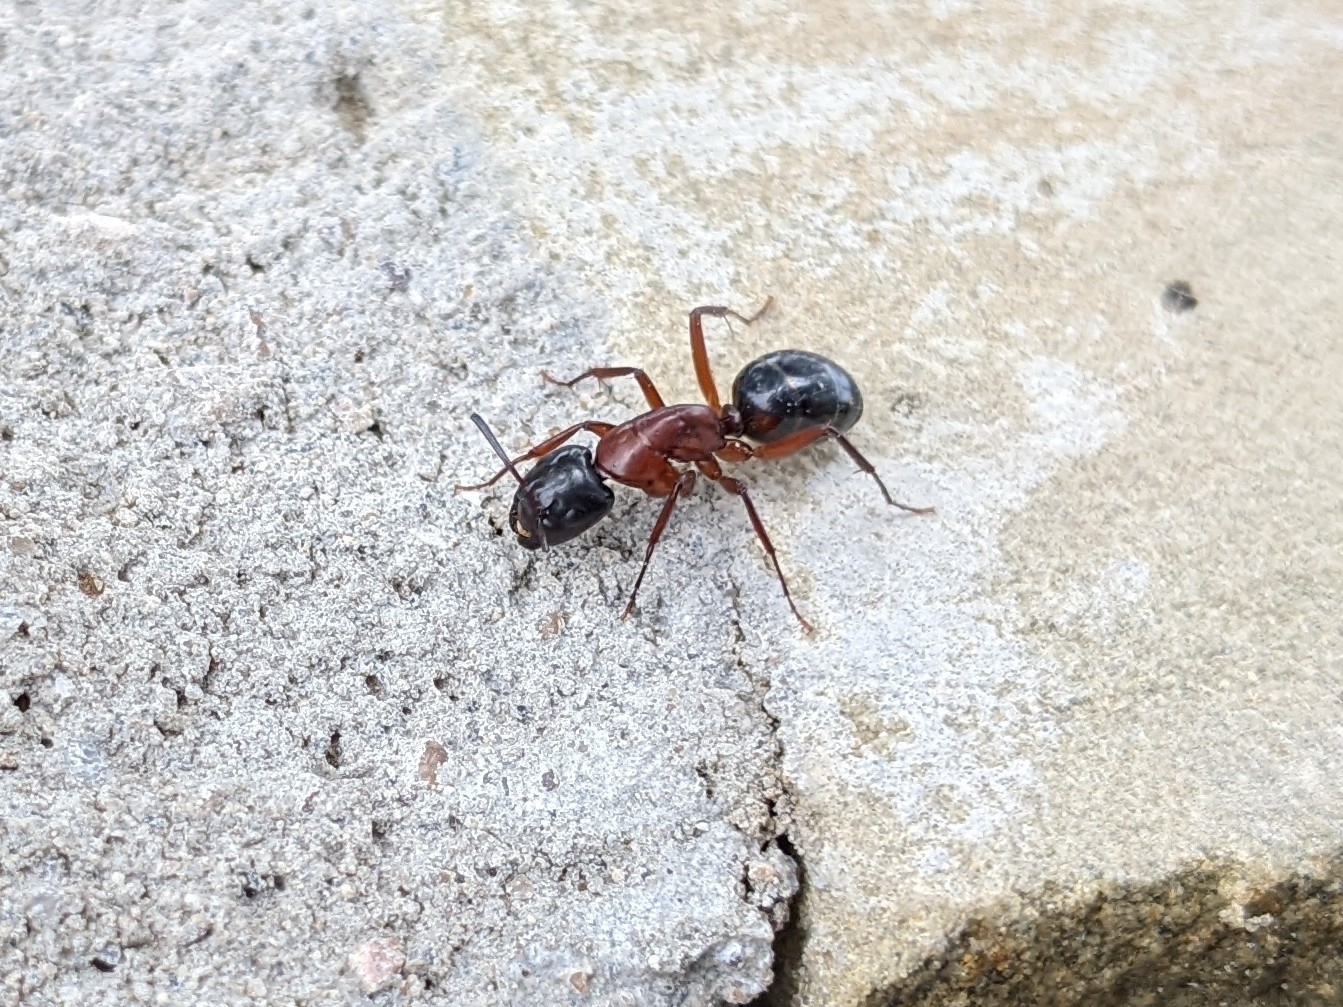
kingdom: Animalia
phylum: Arthropoda
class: Insecta
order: Hymenoptera
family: Formicidae
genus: Camponotus
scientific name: Camponotus texanus
